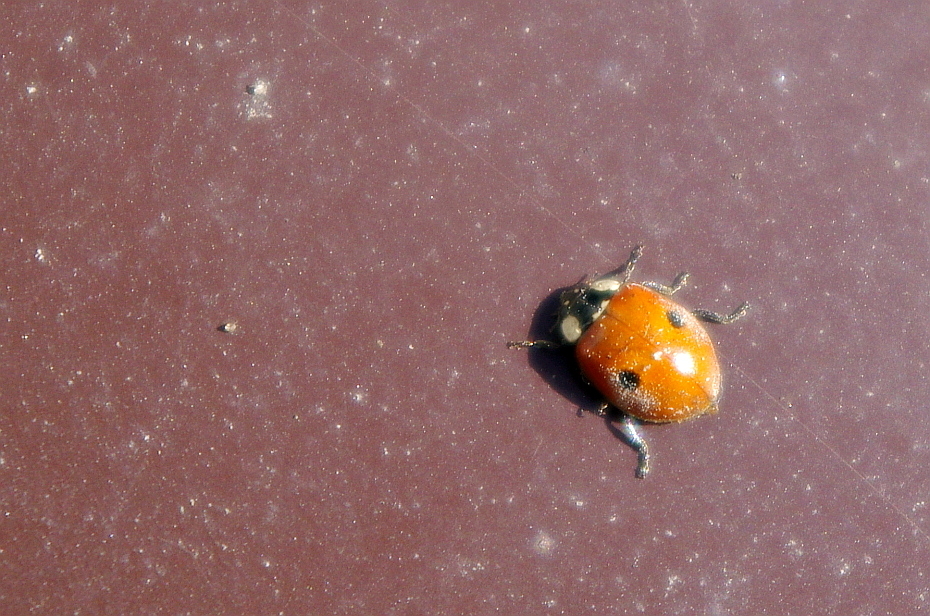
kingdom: Animalia
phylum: Arthropoda
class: Insecta
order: Coleoptera
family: Coccinellidae
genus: Adalia
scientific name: Adalia bipunctata
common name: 2-spot ladybird
